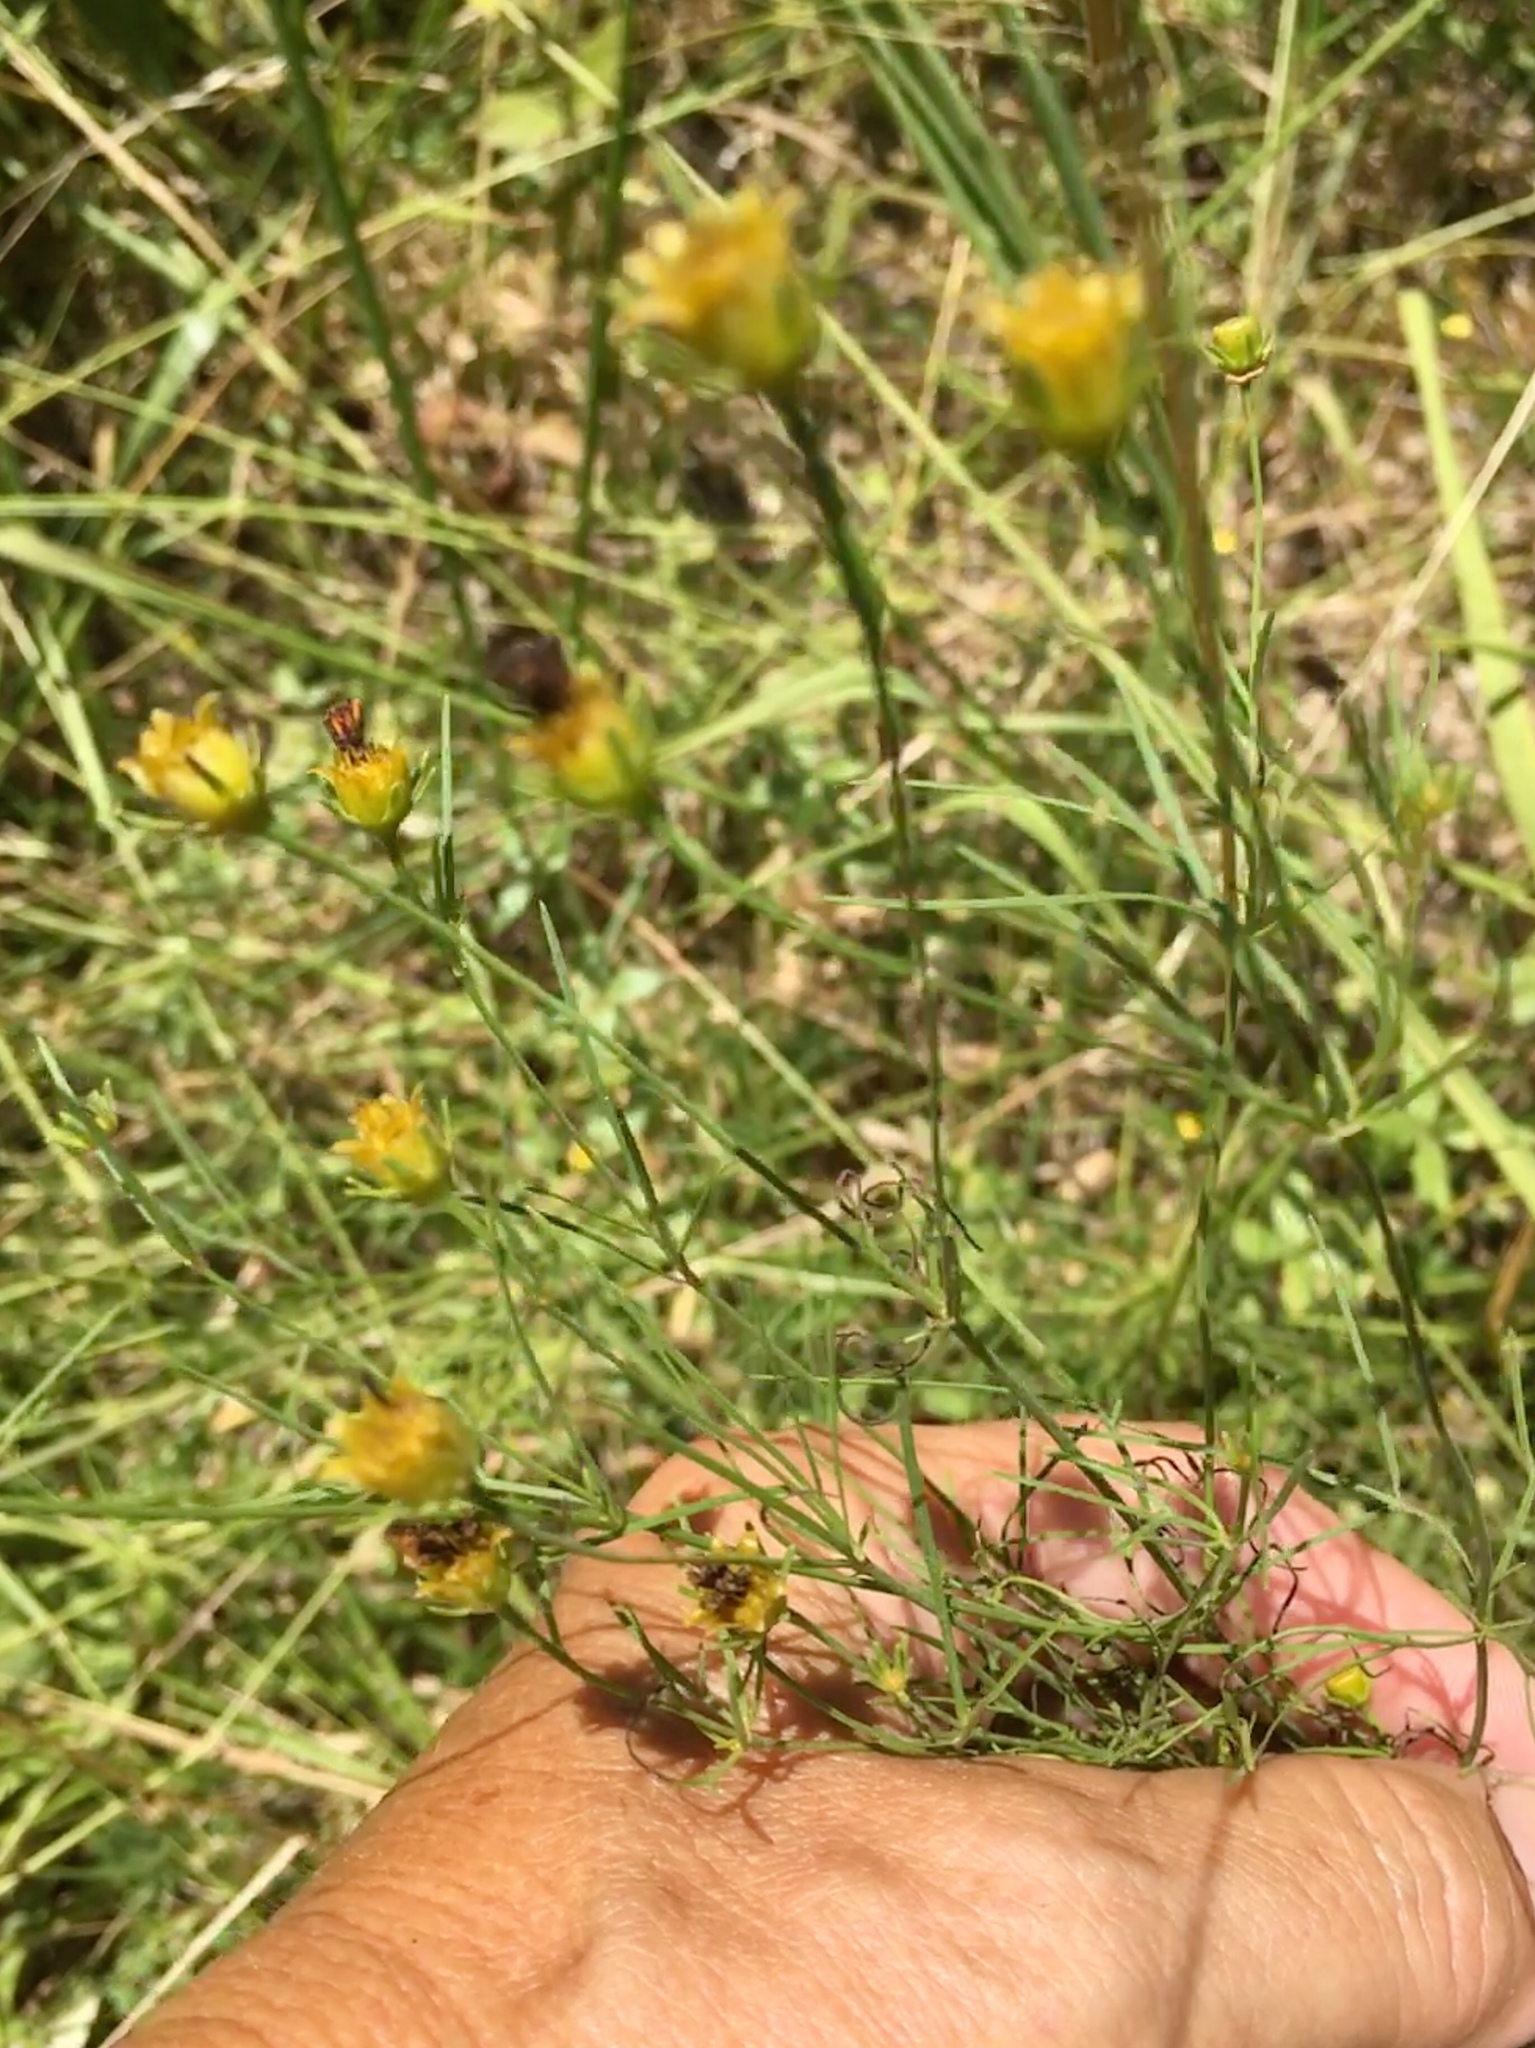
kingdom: Plantae
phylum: Tracheophyta
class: Magnoliopsida
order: Asterales
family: Asteraceae
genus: Coreopsis
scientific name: Coreopsis verticillata
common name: Whorled tickseed
